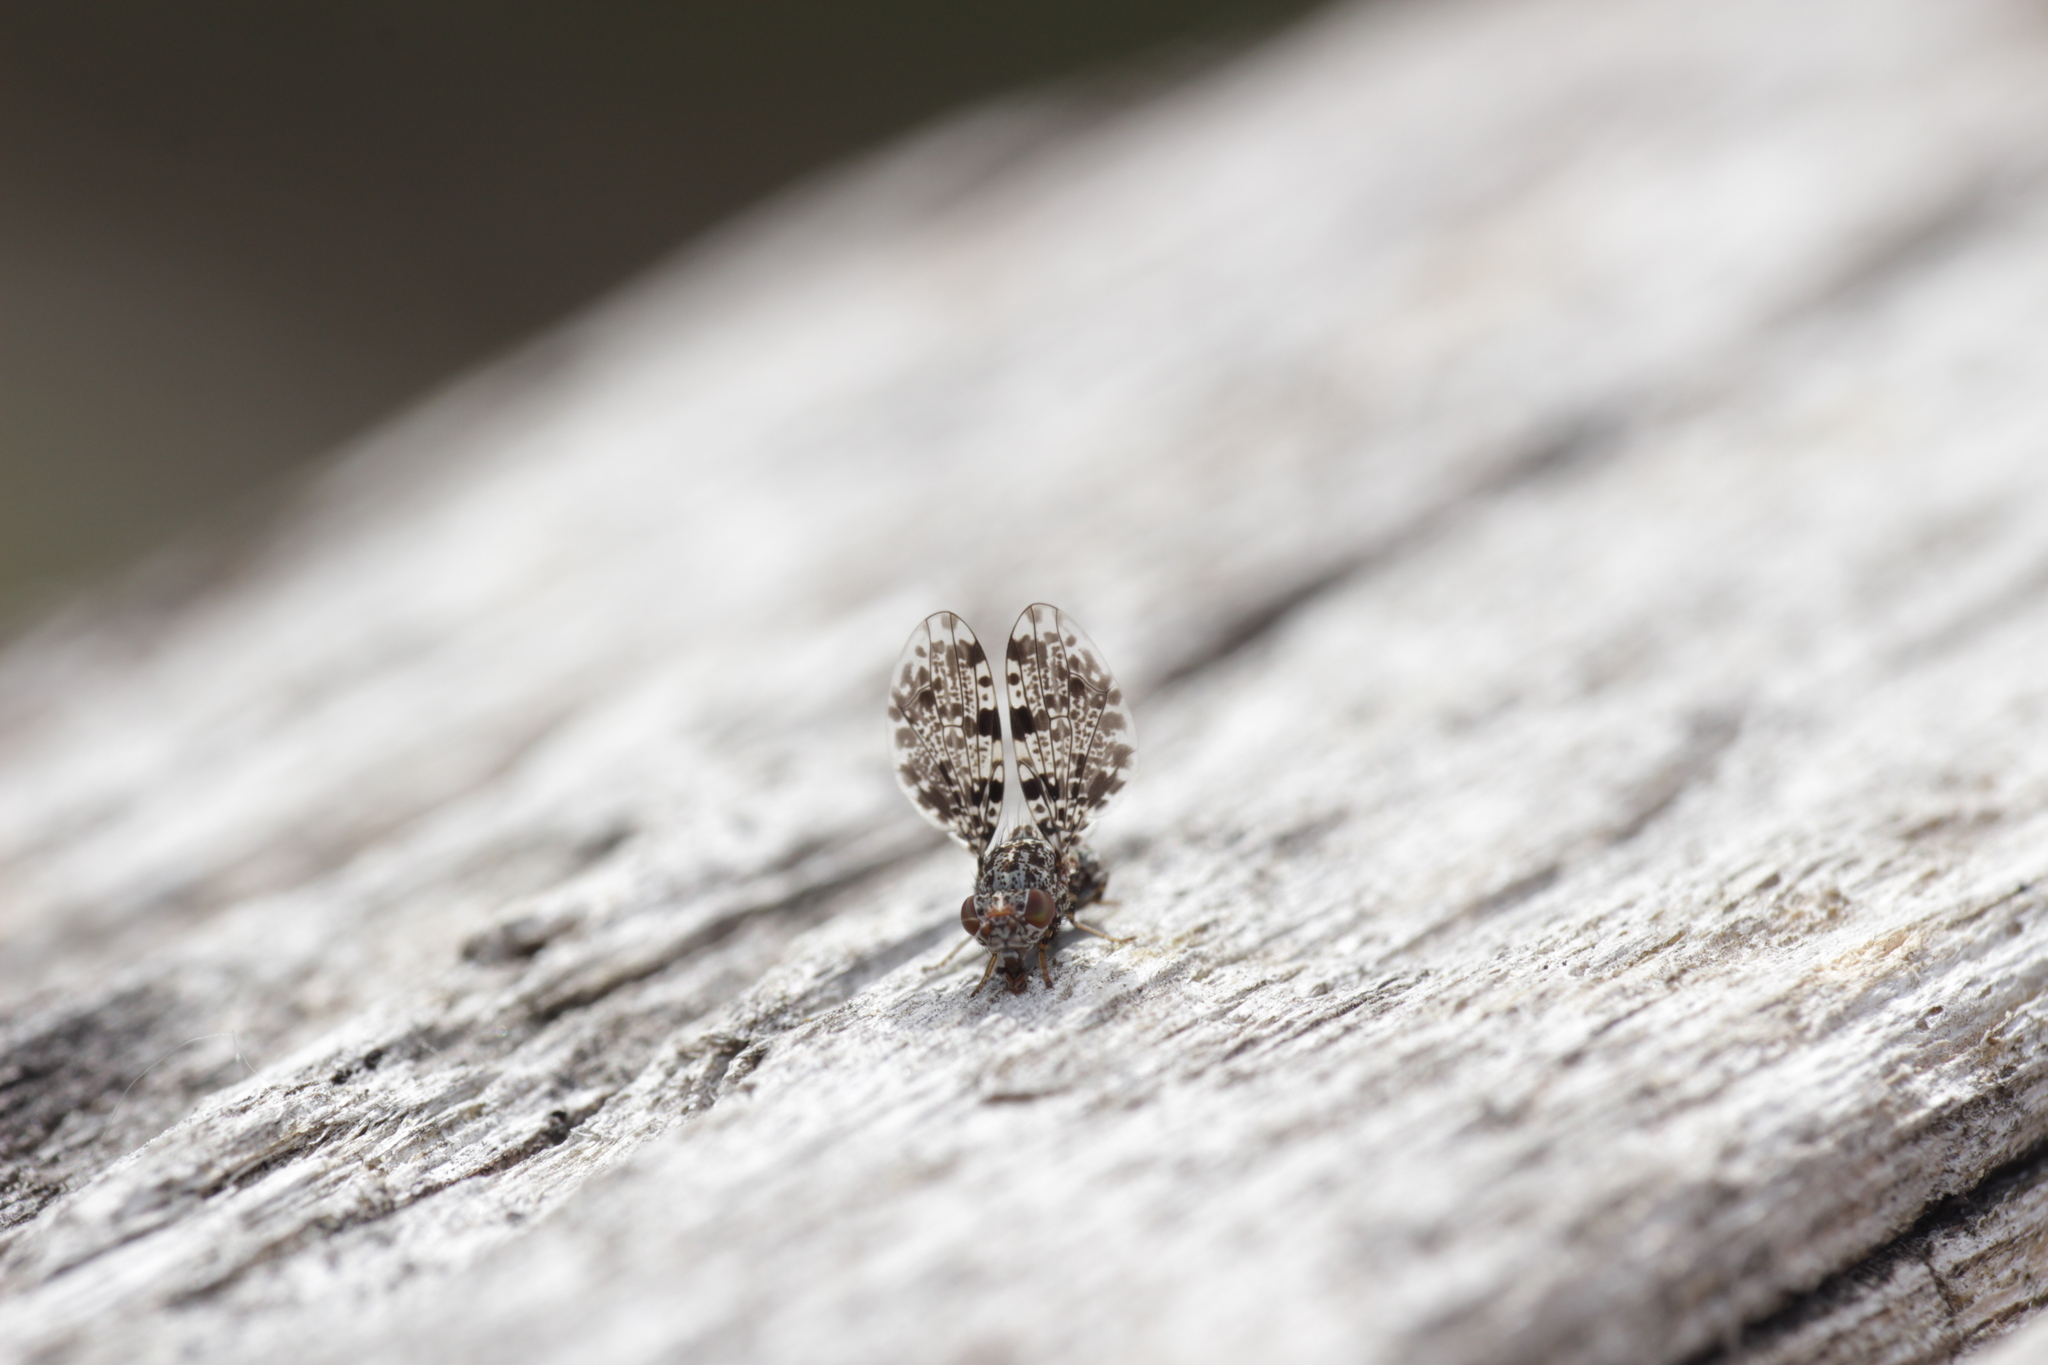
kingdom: Animalia
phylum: Arthropoda
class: Insecta
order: Diptera
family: Ulidiidae
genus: Callopistromyia
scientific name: Callopistromyia annulipes
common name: Peacock fly
